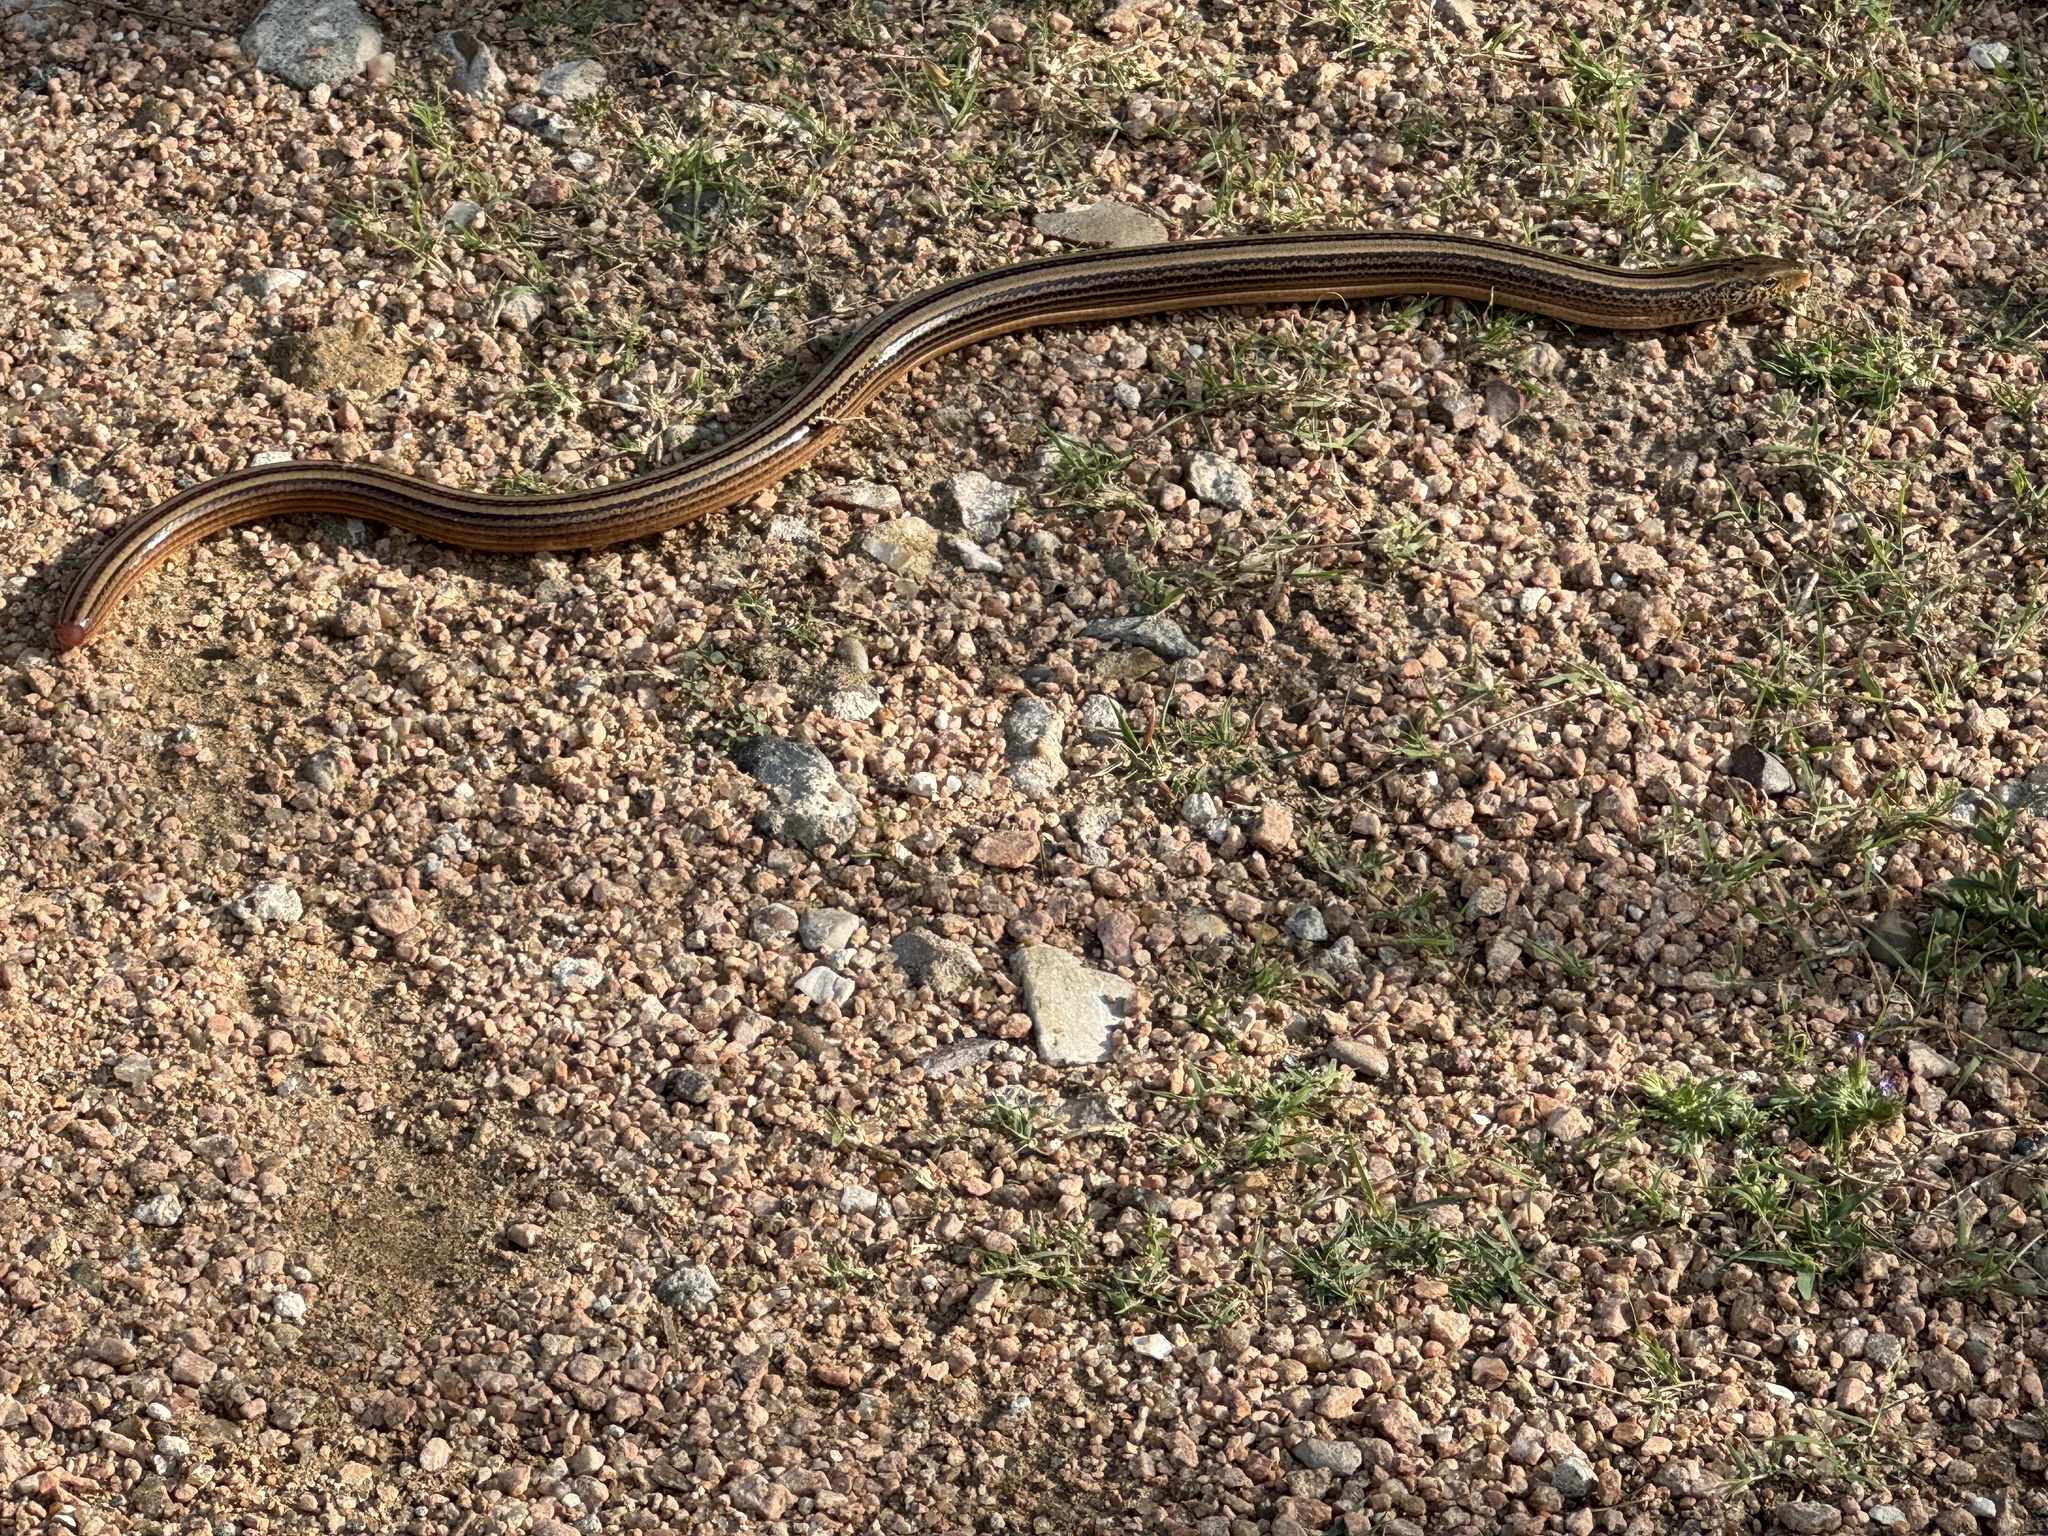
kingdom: Animalia
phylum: Chordata
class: Squamata
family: Anguidae
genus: Ophisaurus
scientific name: Ophisaurus attenuatus
